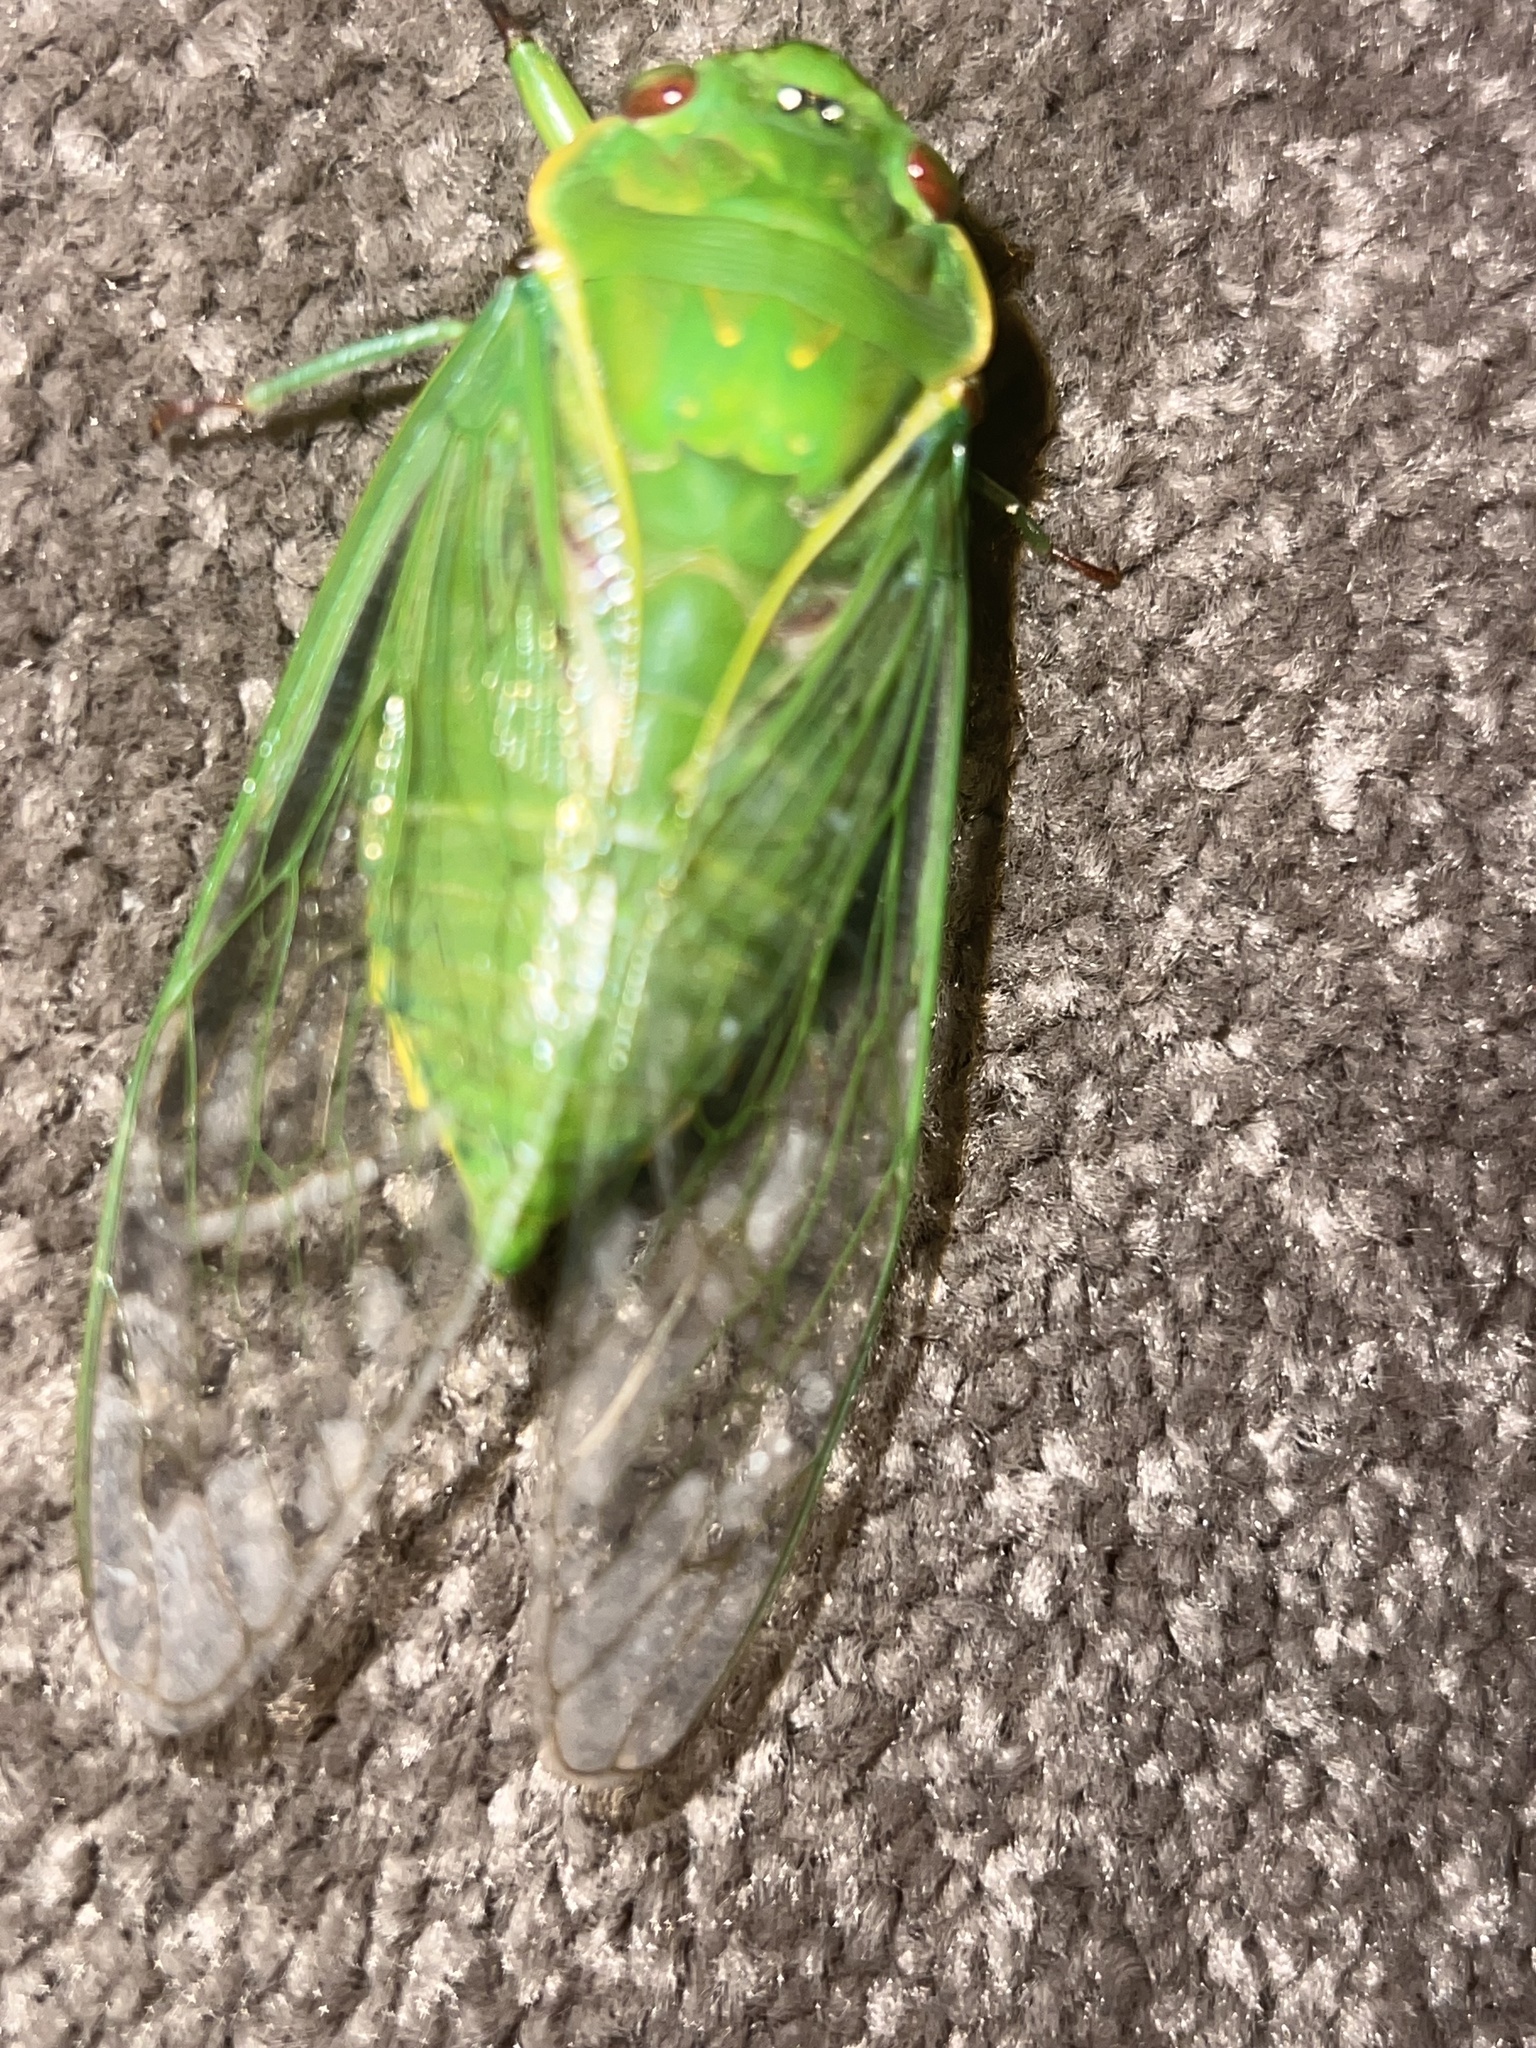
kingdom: Animalia
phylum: Arthropoda
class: Insecta
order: Hemiptera
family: Cicadidae
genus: Cyclochila
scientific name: Cyclochila virens
